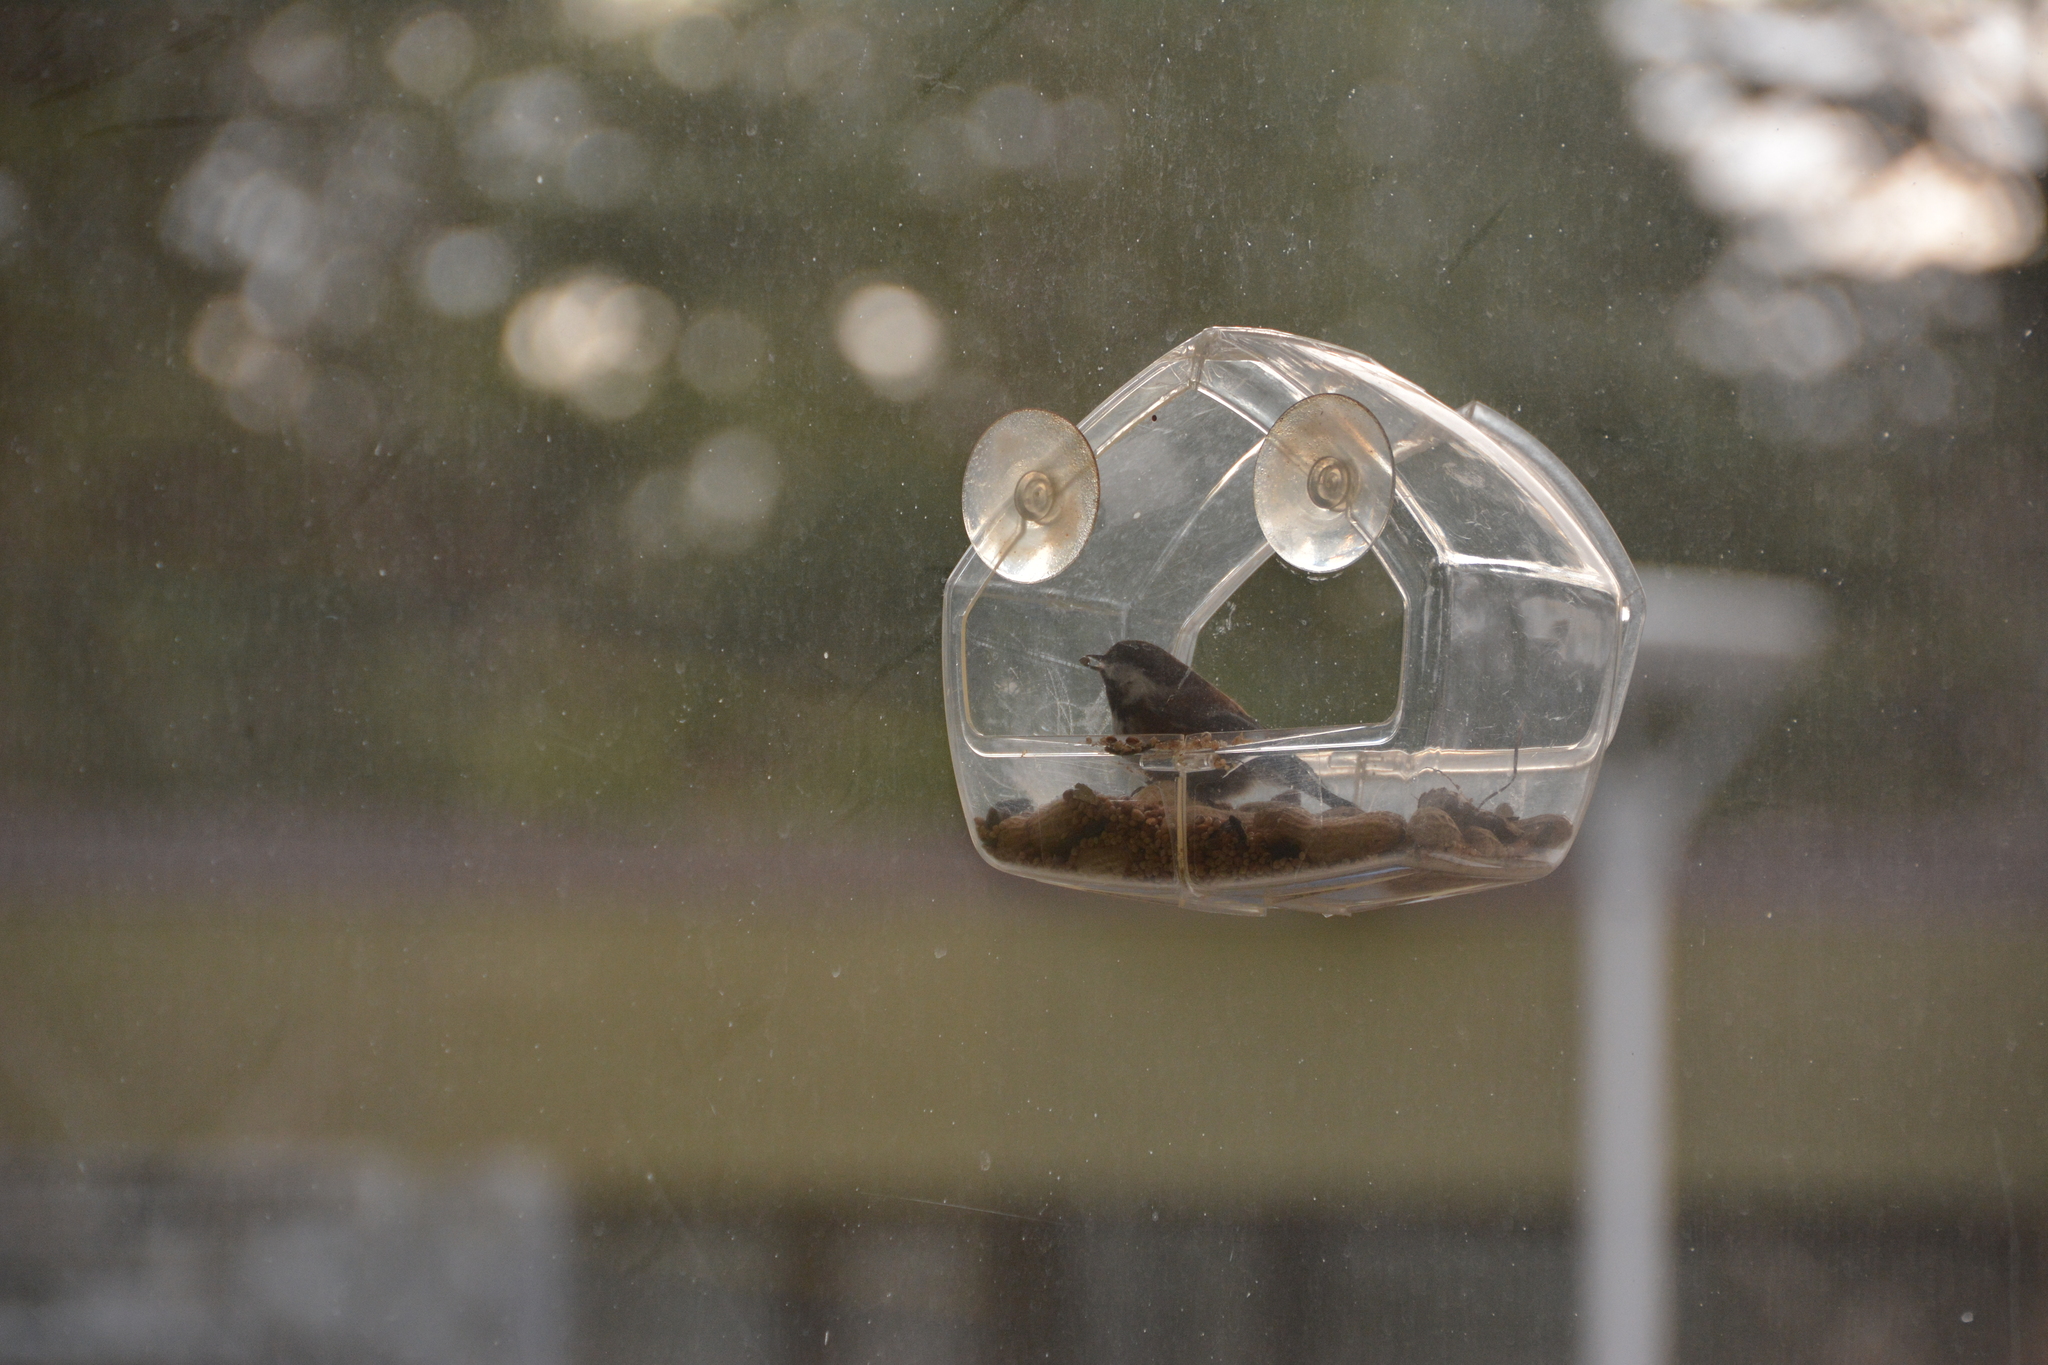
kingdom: Animalia
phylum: Chordata
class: Aves
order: Passeriformes
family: Paridae
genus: Poecile
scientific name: Poecile rufescens
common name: Chestnut-backed chickadee
